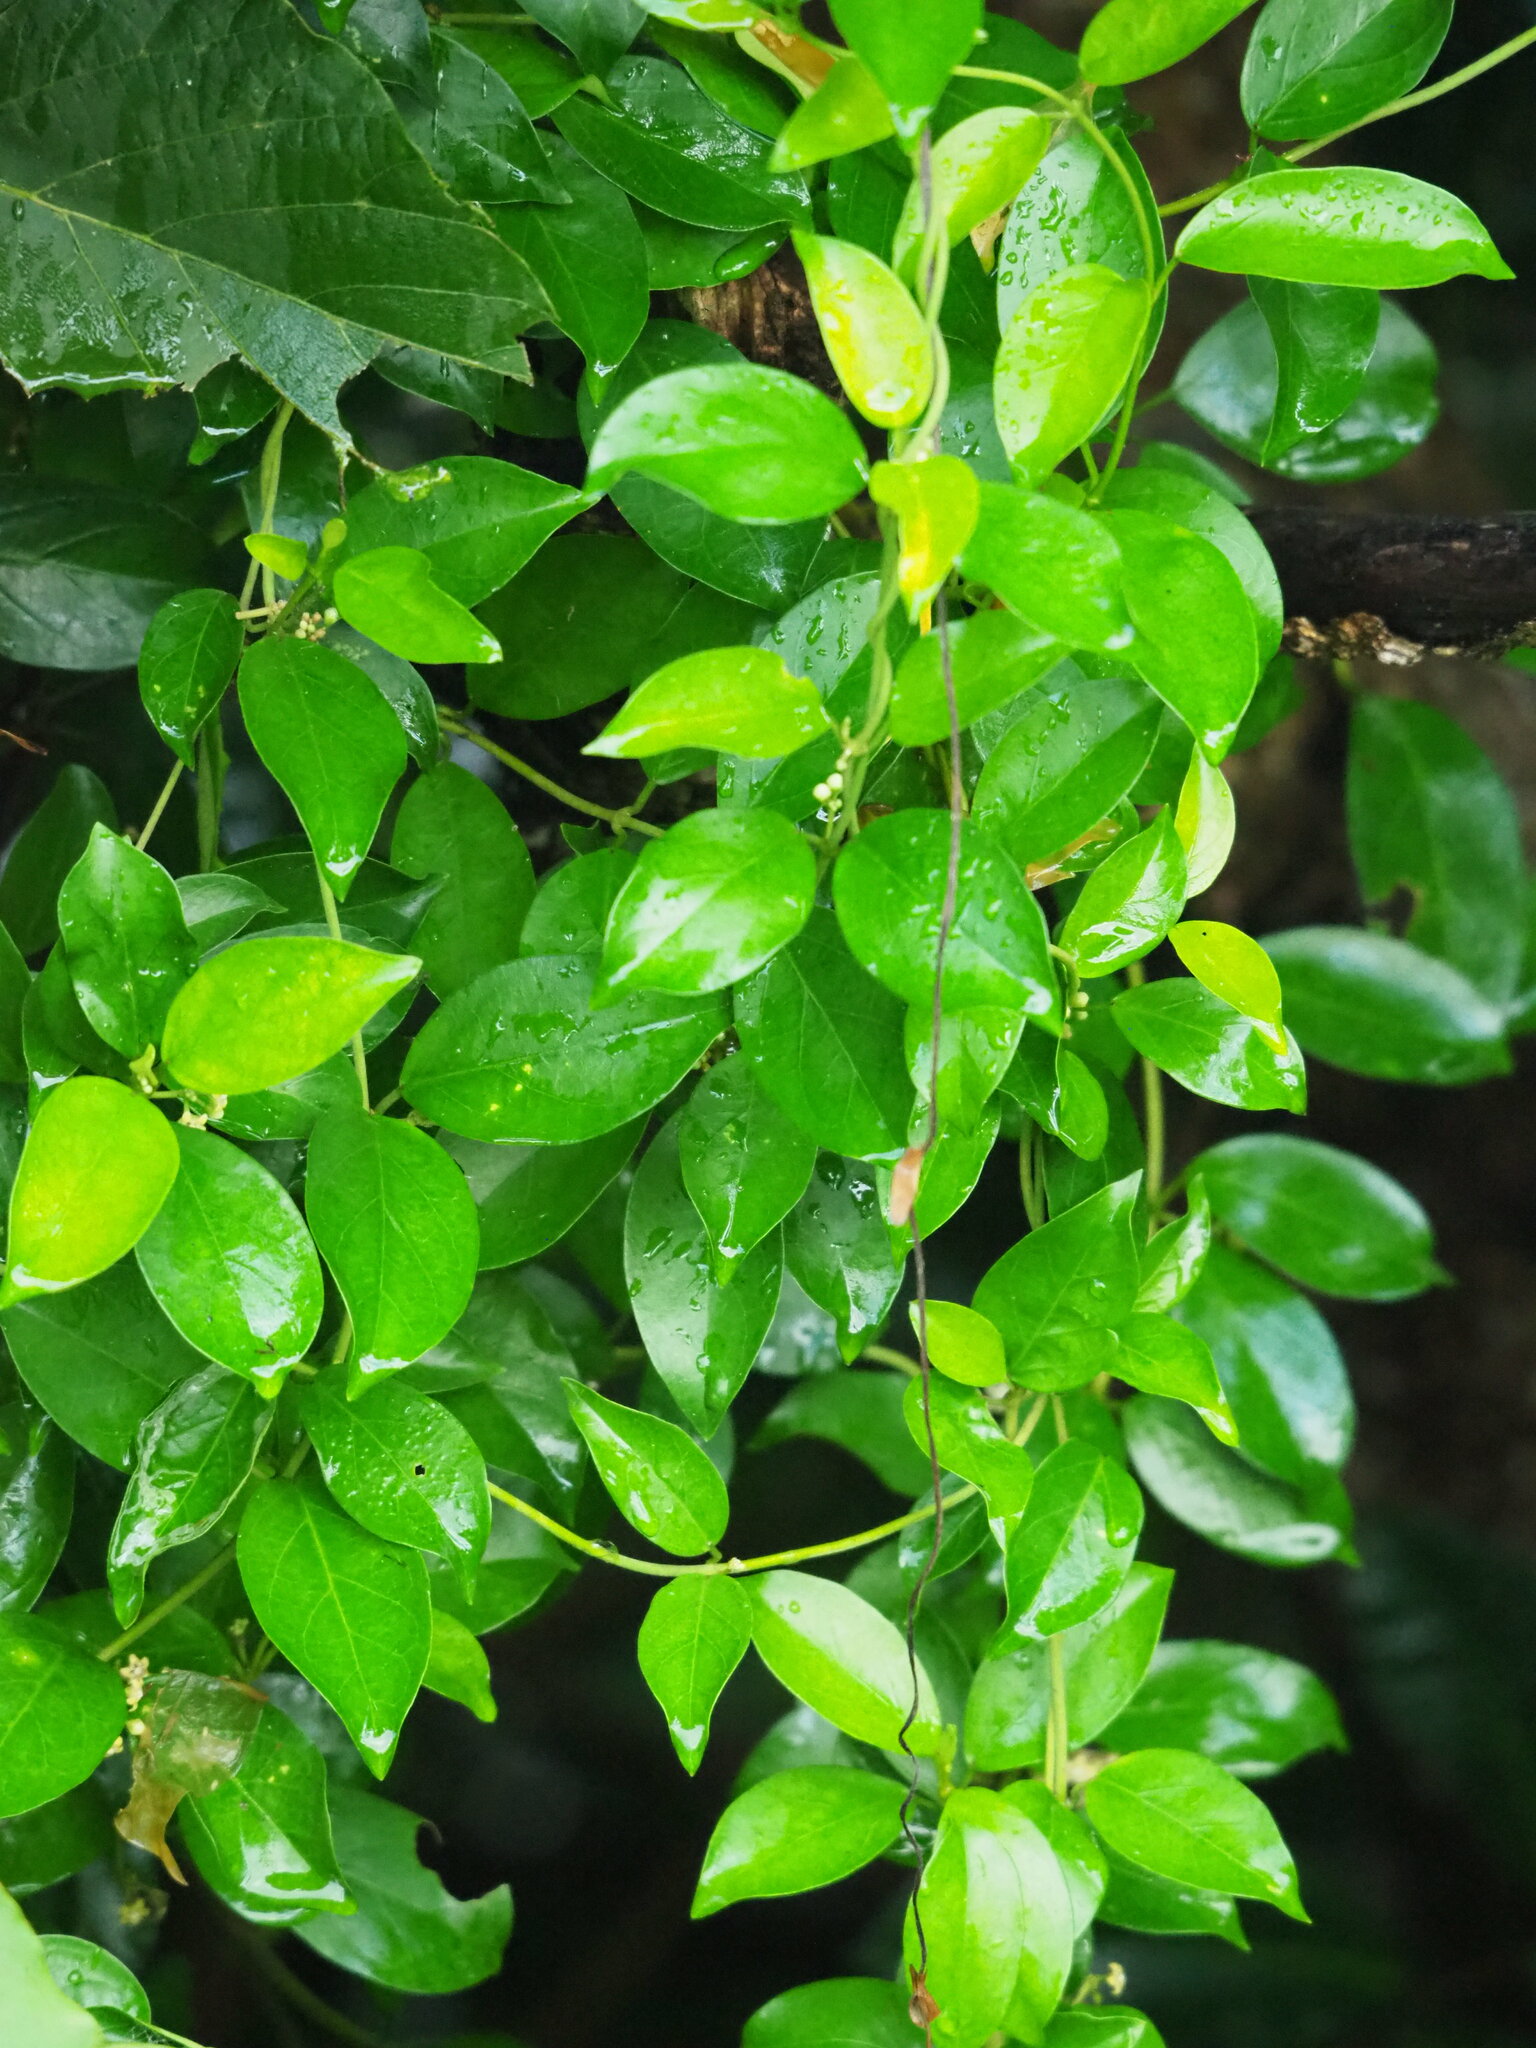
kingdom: Plantae
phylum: Tracheophyta
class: Magnoliopsida
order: Gentianales
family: Apocynaceae
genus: Gymnema
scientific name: Gymnema sylvestre
